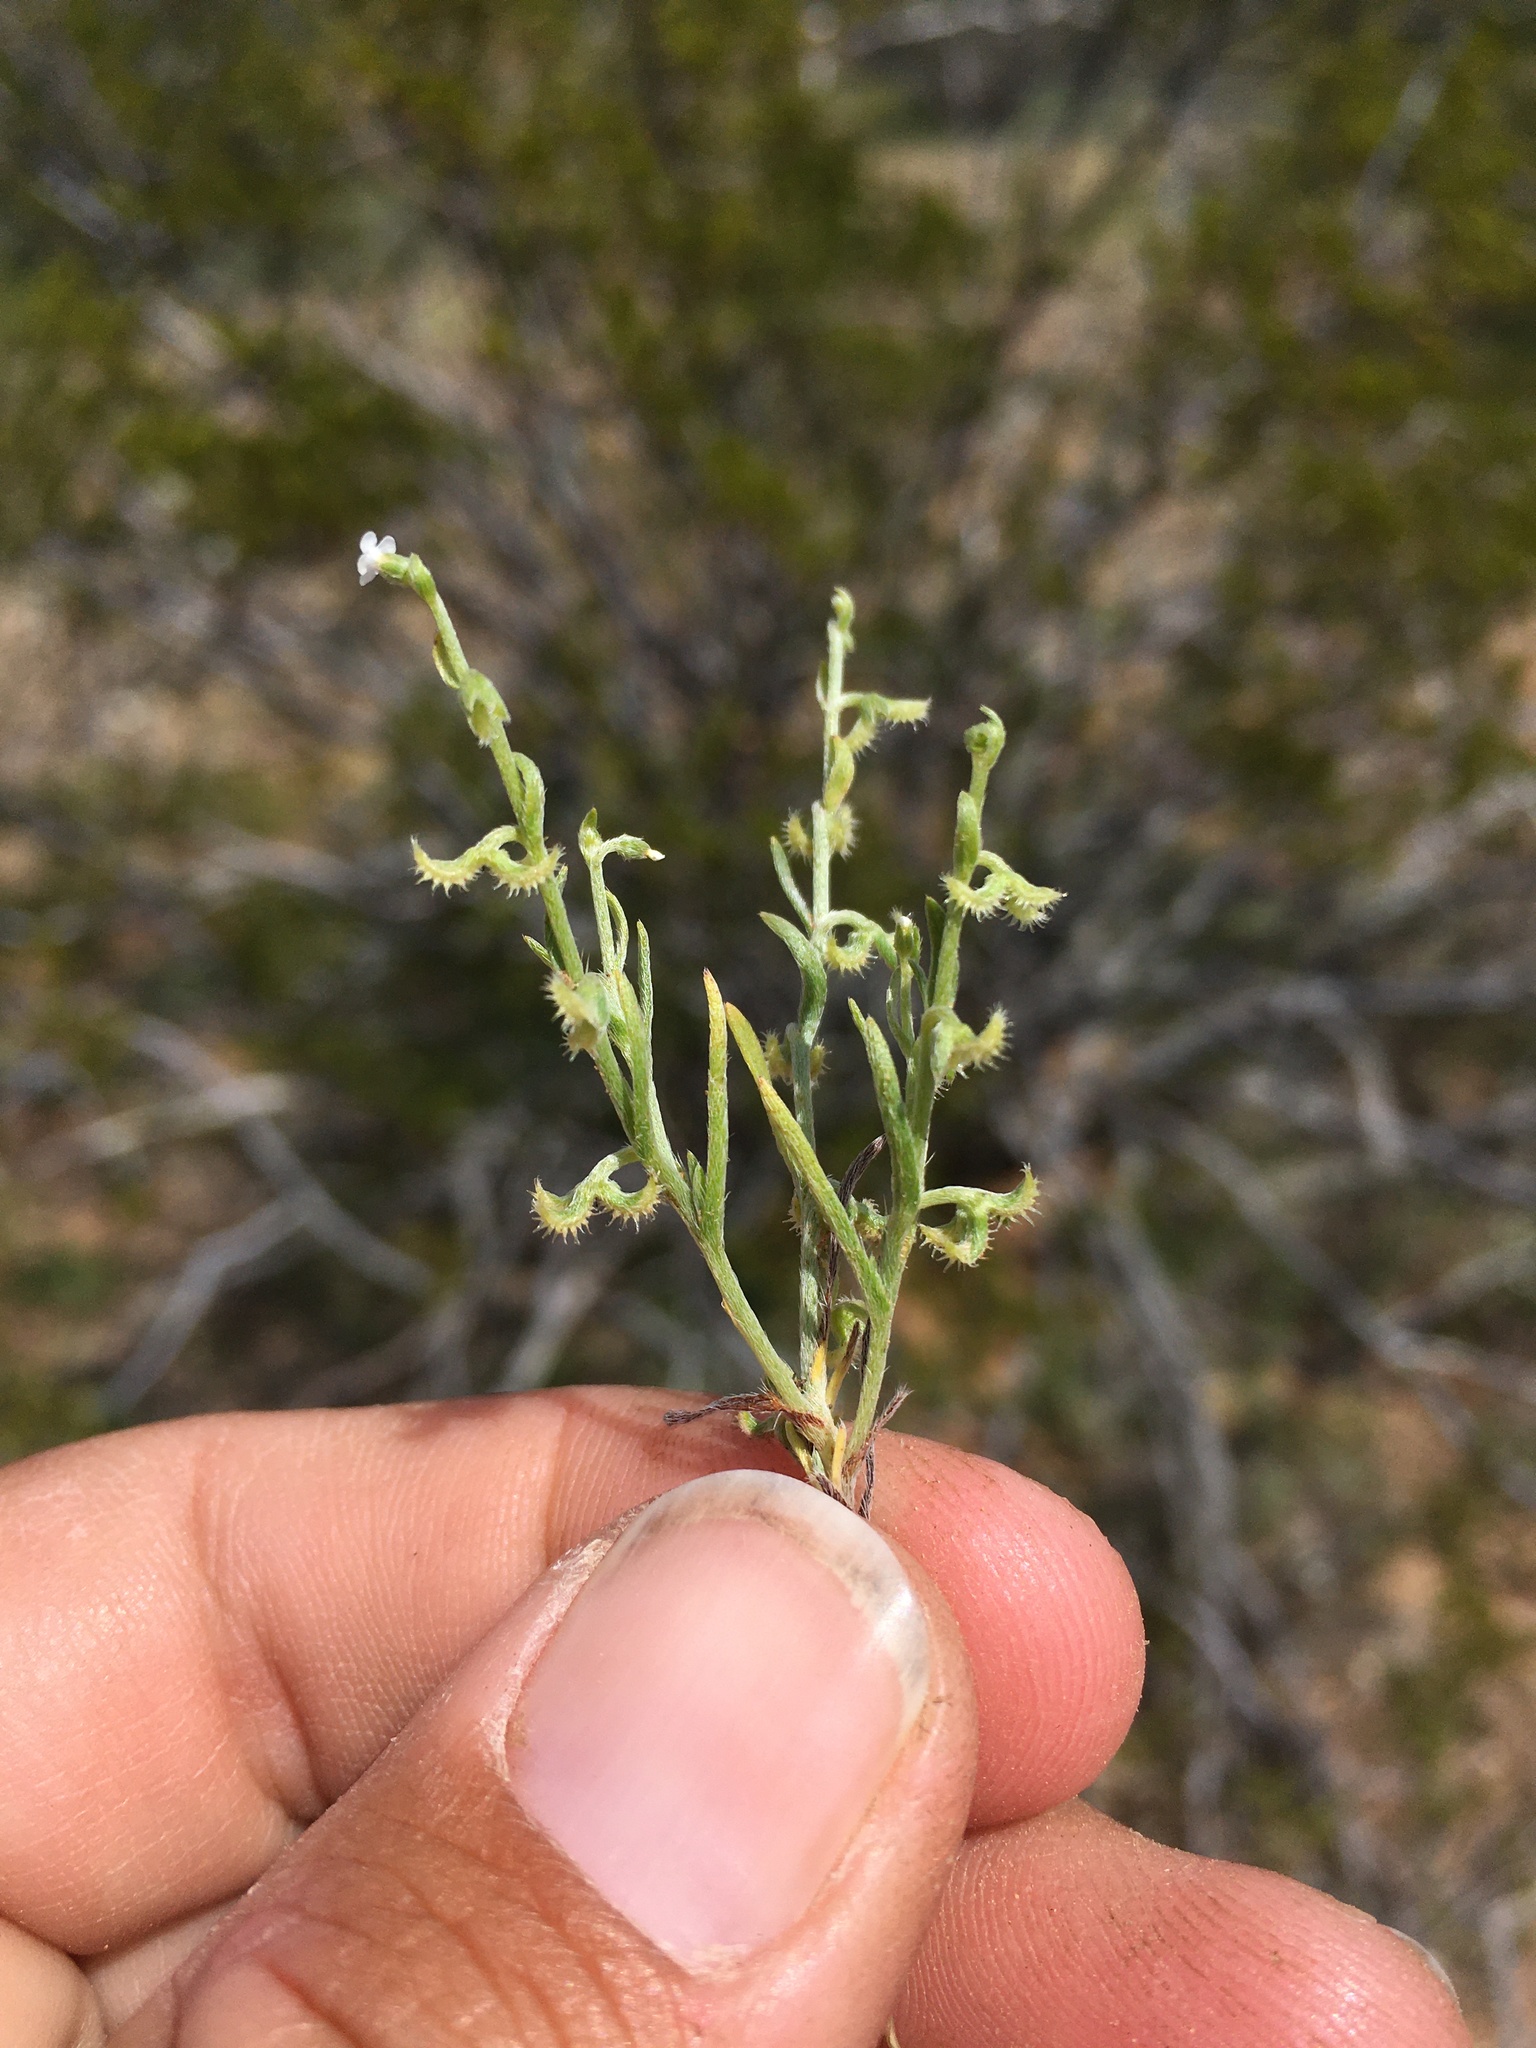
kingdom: Plantae
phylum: Tracheophyta
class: Magnoliopsida
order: Boraginales
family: Boraginaceae
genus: Pectocarya
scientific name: Pectocarya recurvata
